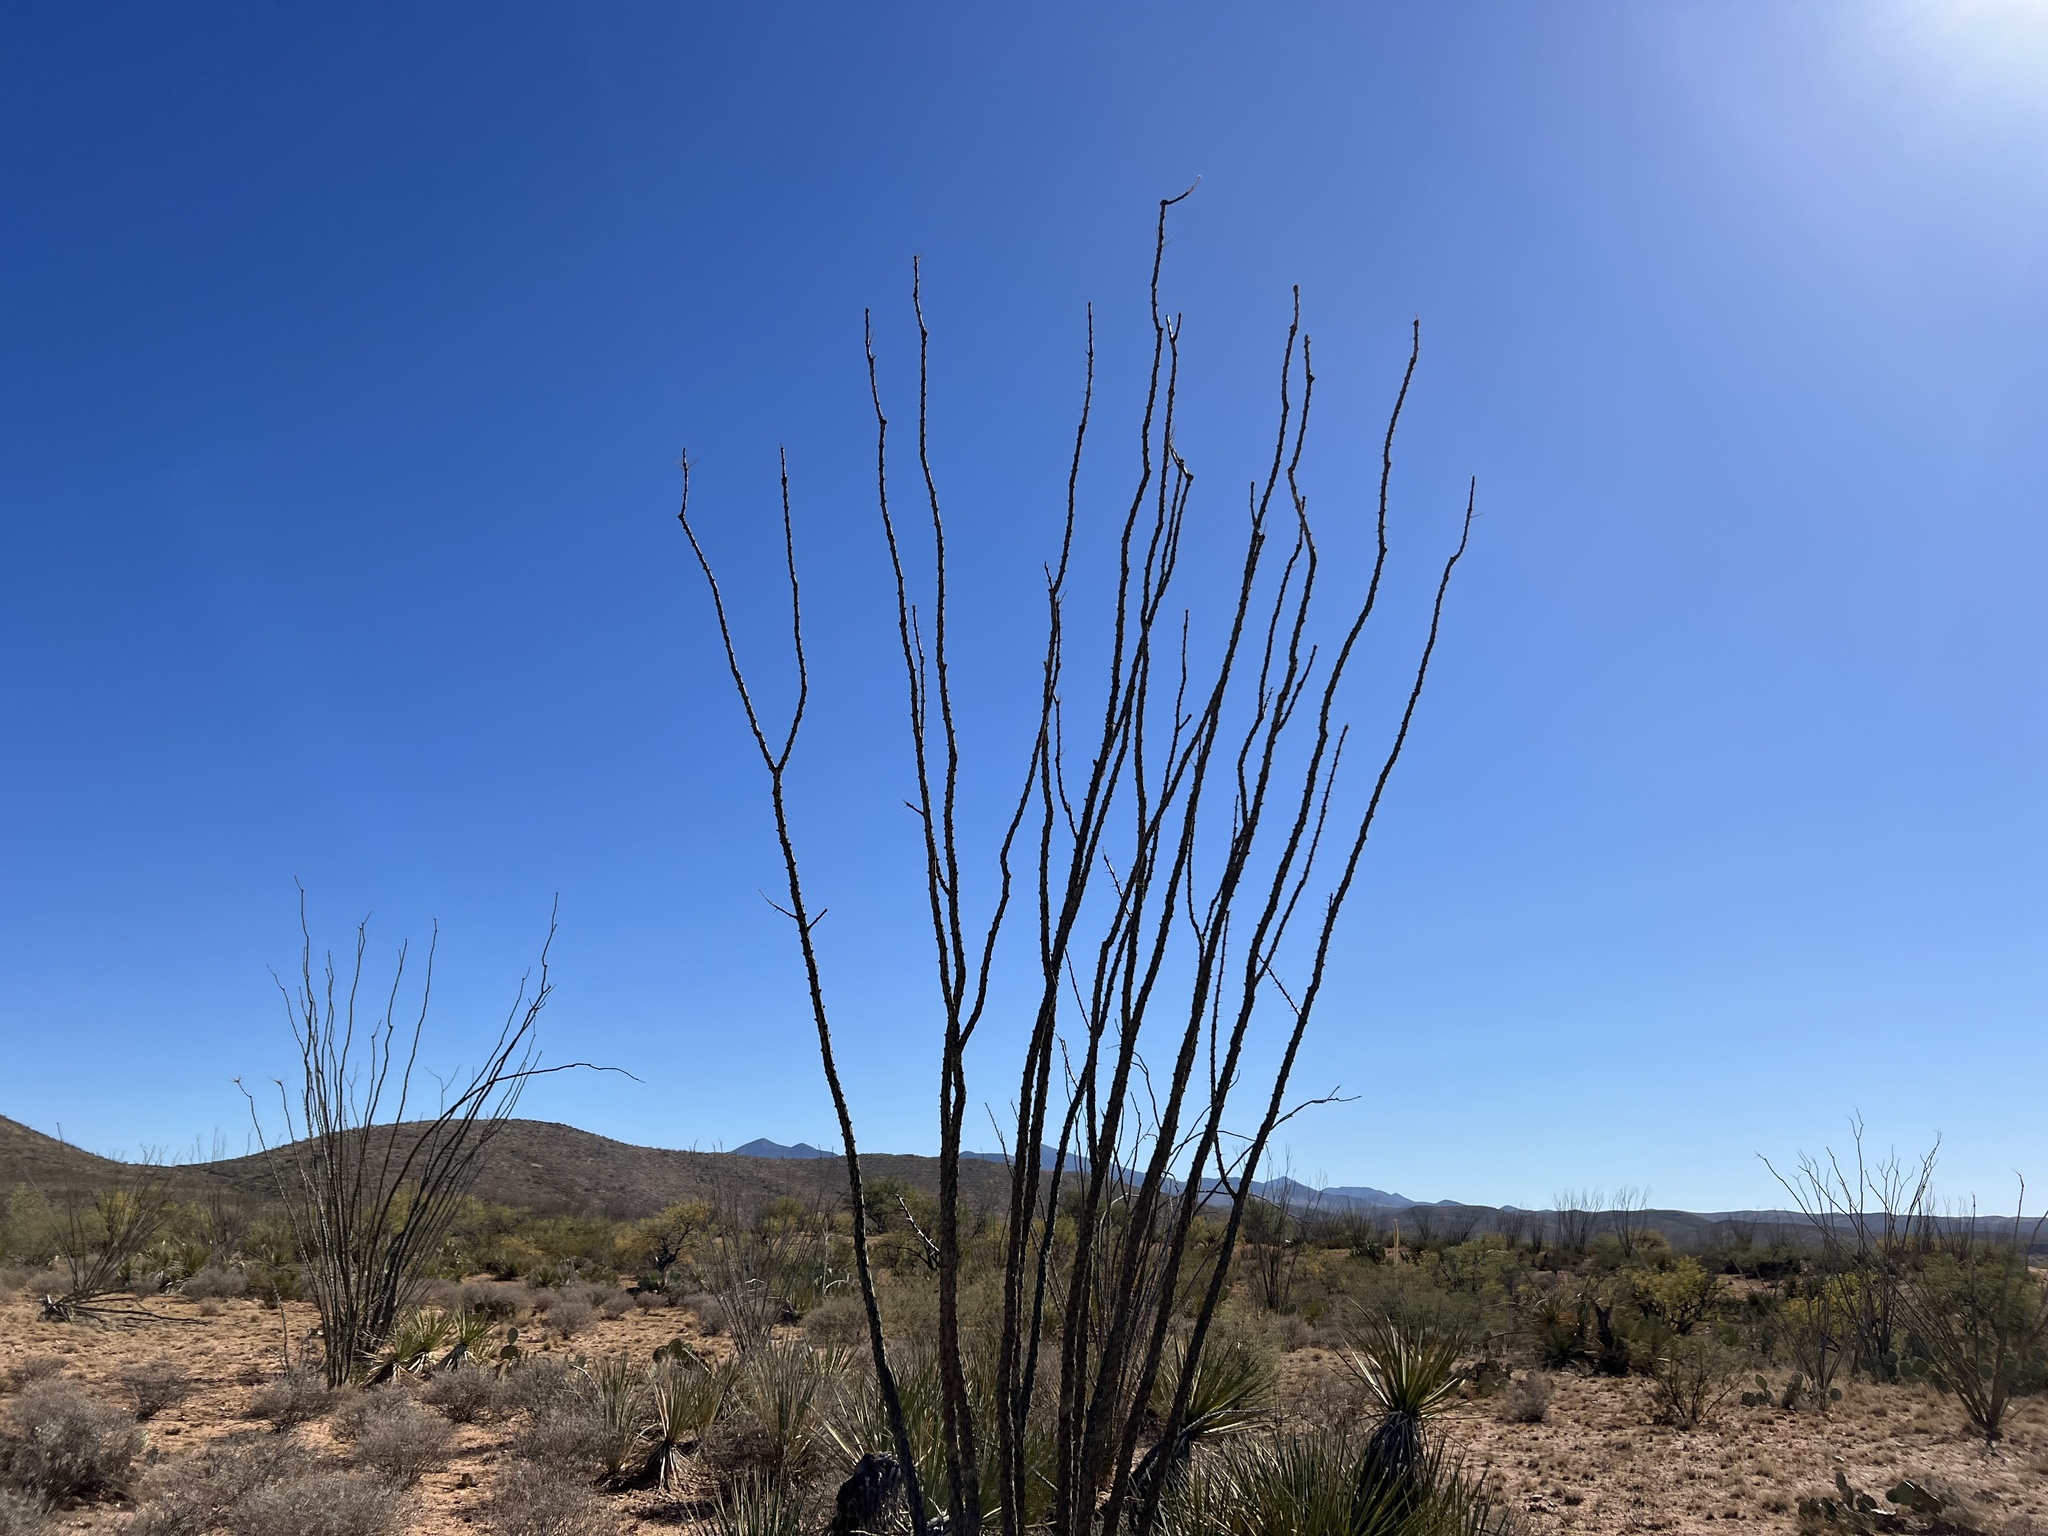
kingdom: Plantae
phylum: Tracheophyta
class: Magnoliopsida
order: Ericales
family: Fouquieriaceae
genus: Fouquieria
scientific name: Fouquieria splendens
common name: Vine-cactus
